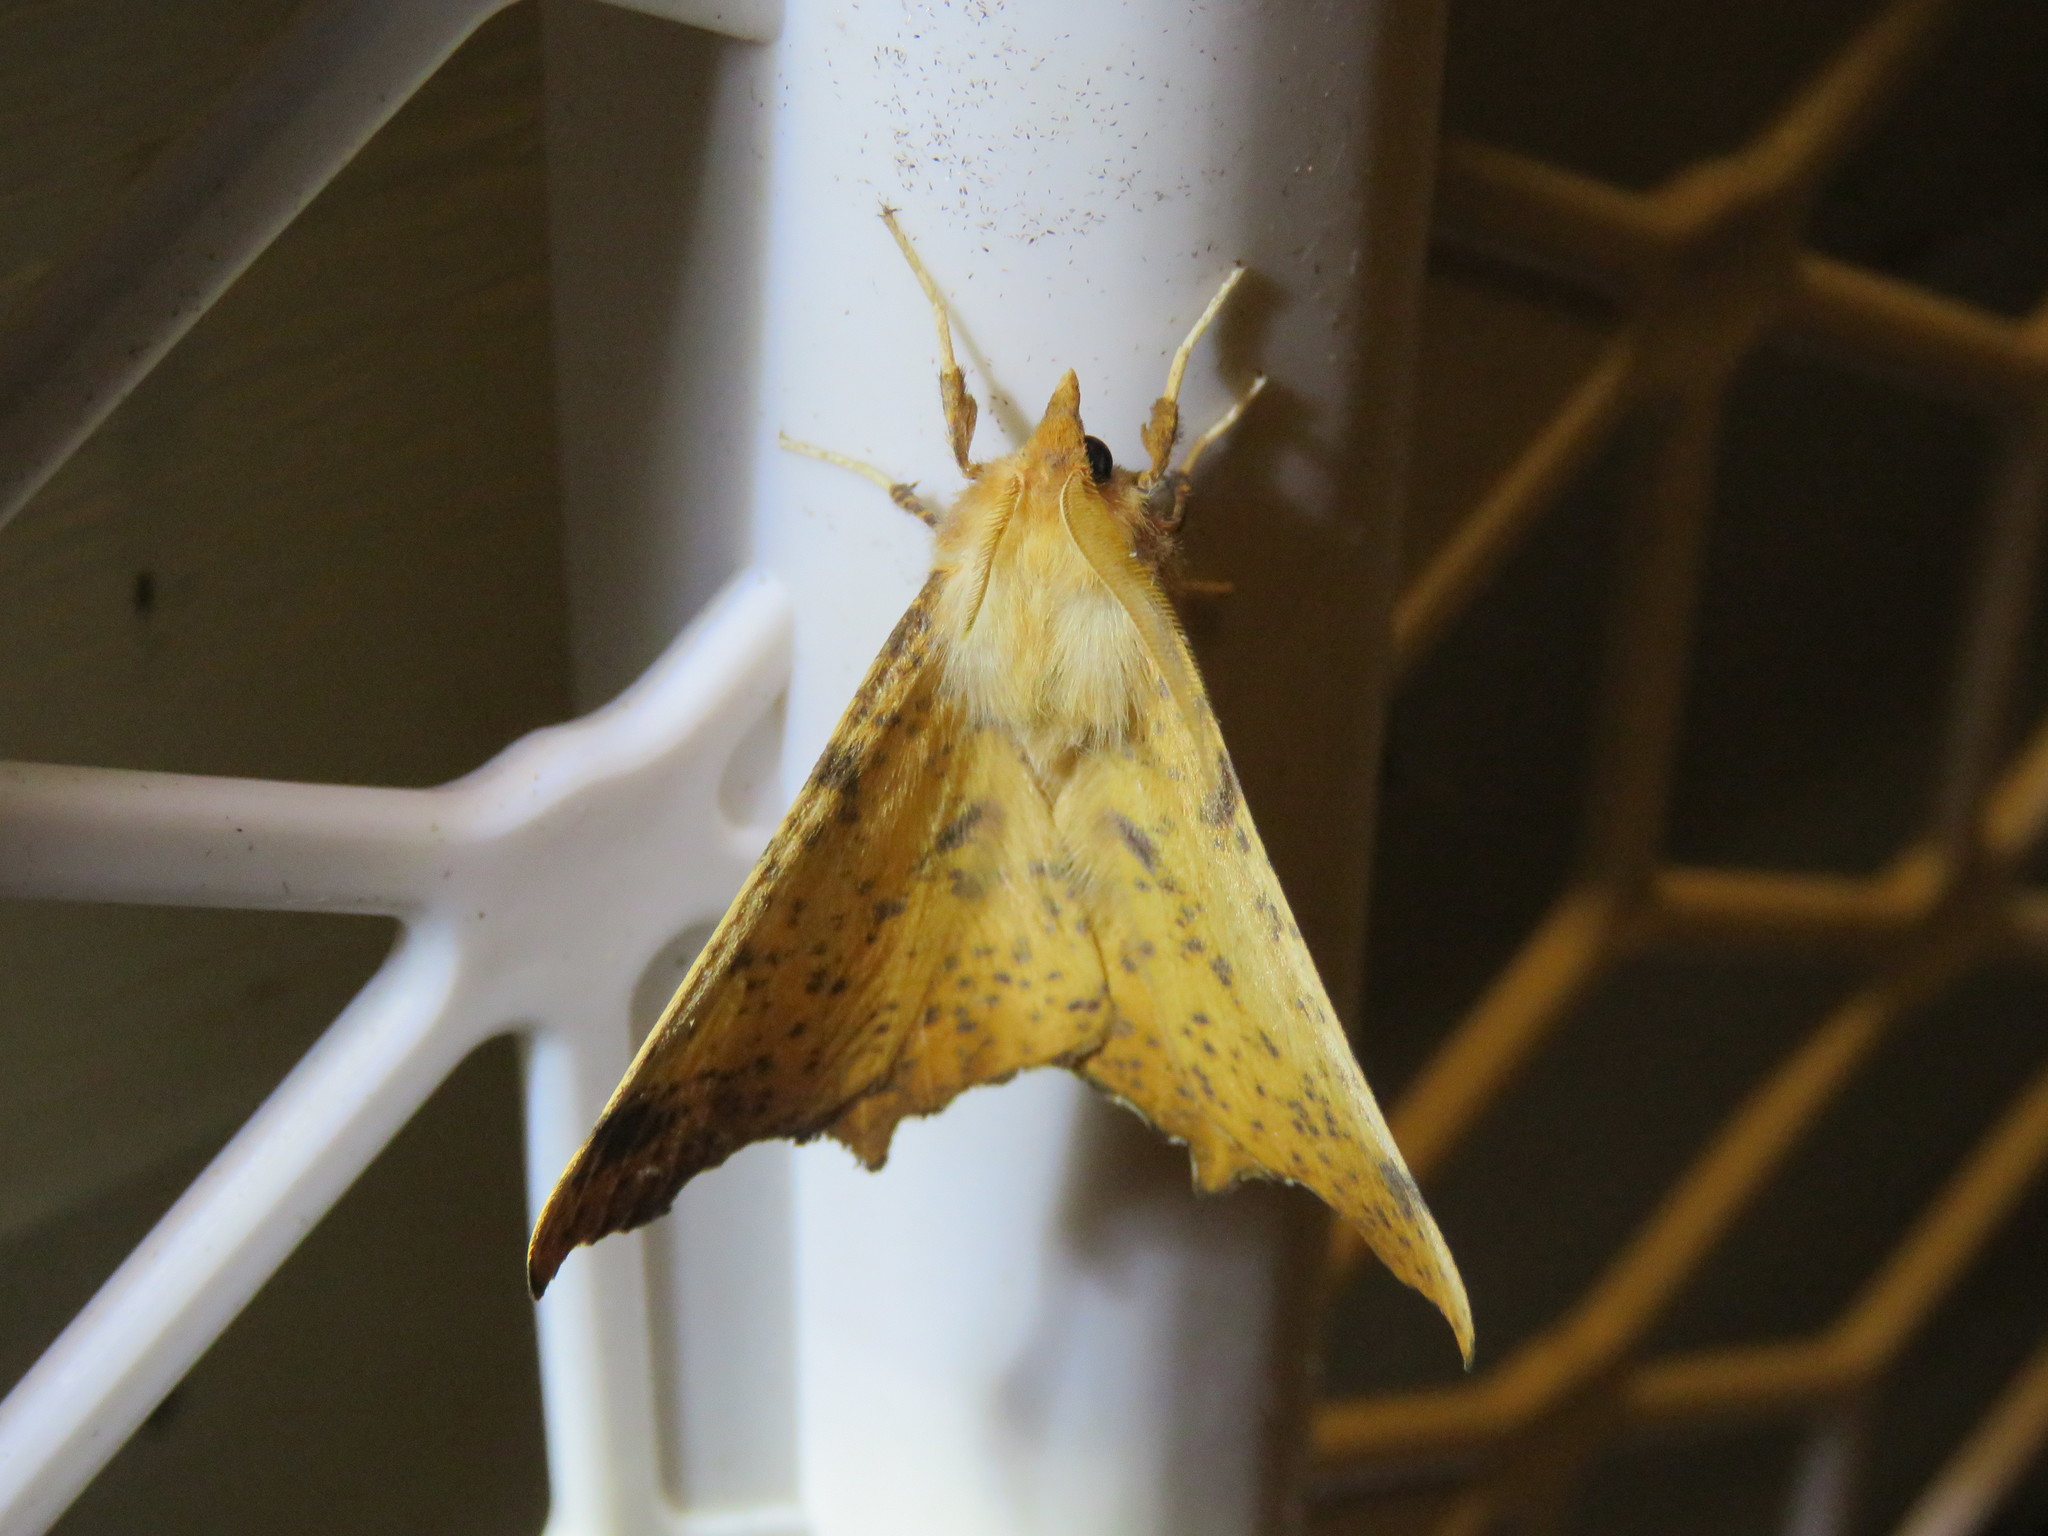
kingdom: Animalia
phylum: Arthropoda
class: Insecta
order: Lepidoptera
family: Geometridae
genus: Ennomos
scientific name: Ennomos magnaria
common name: Maple spanworm
